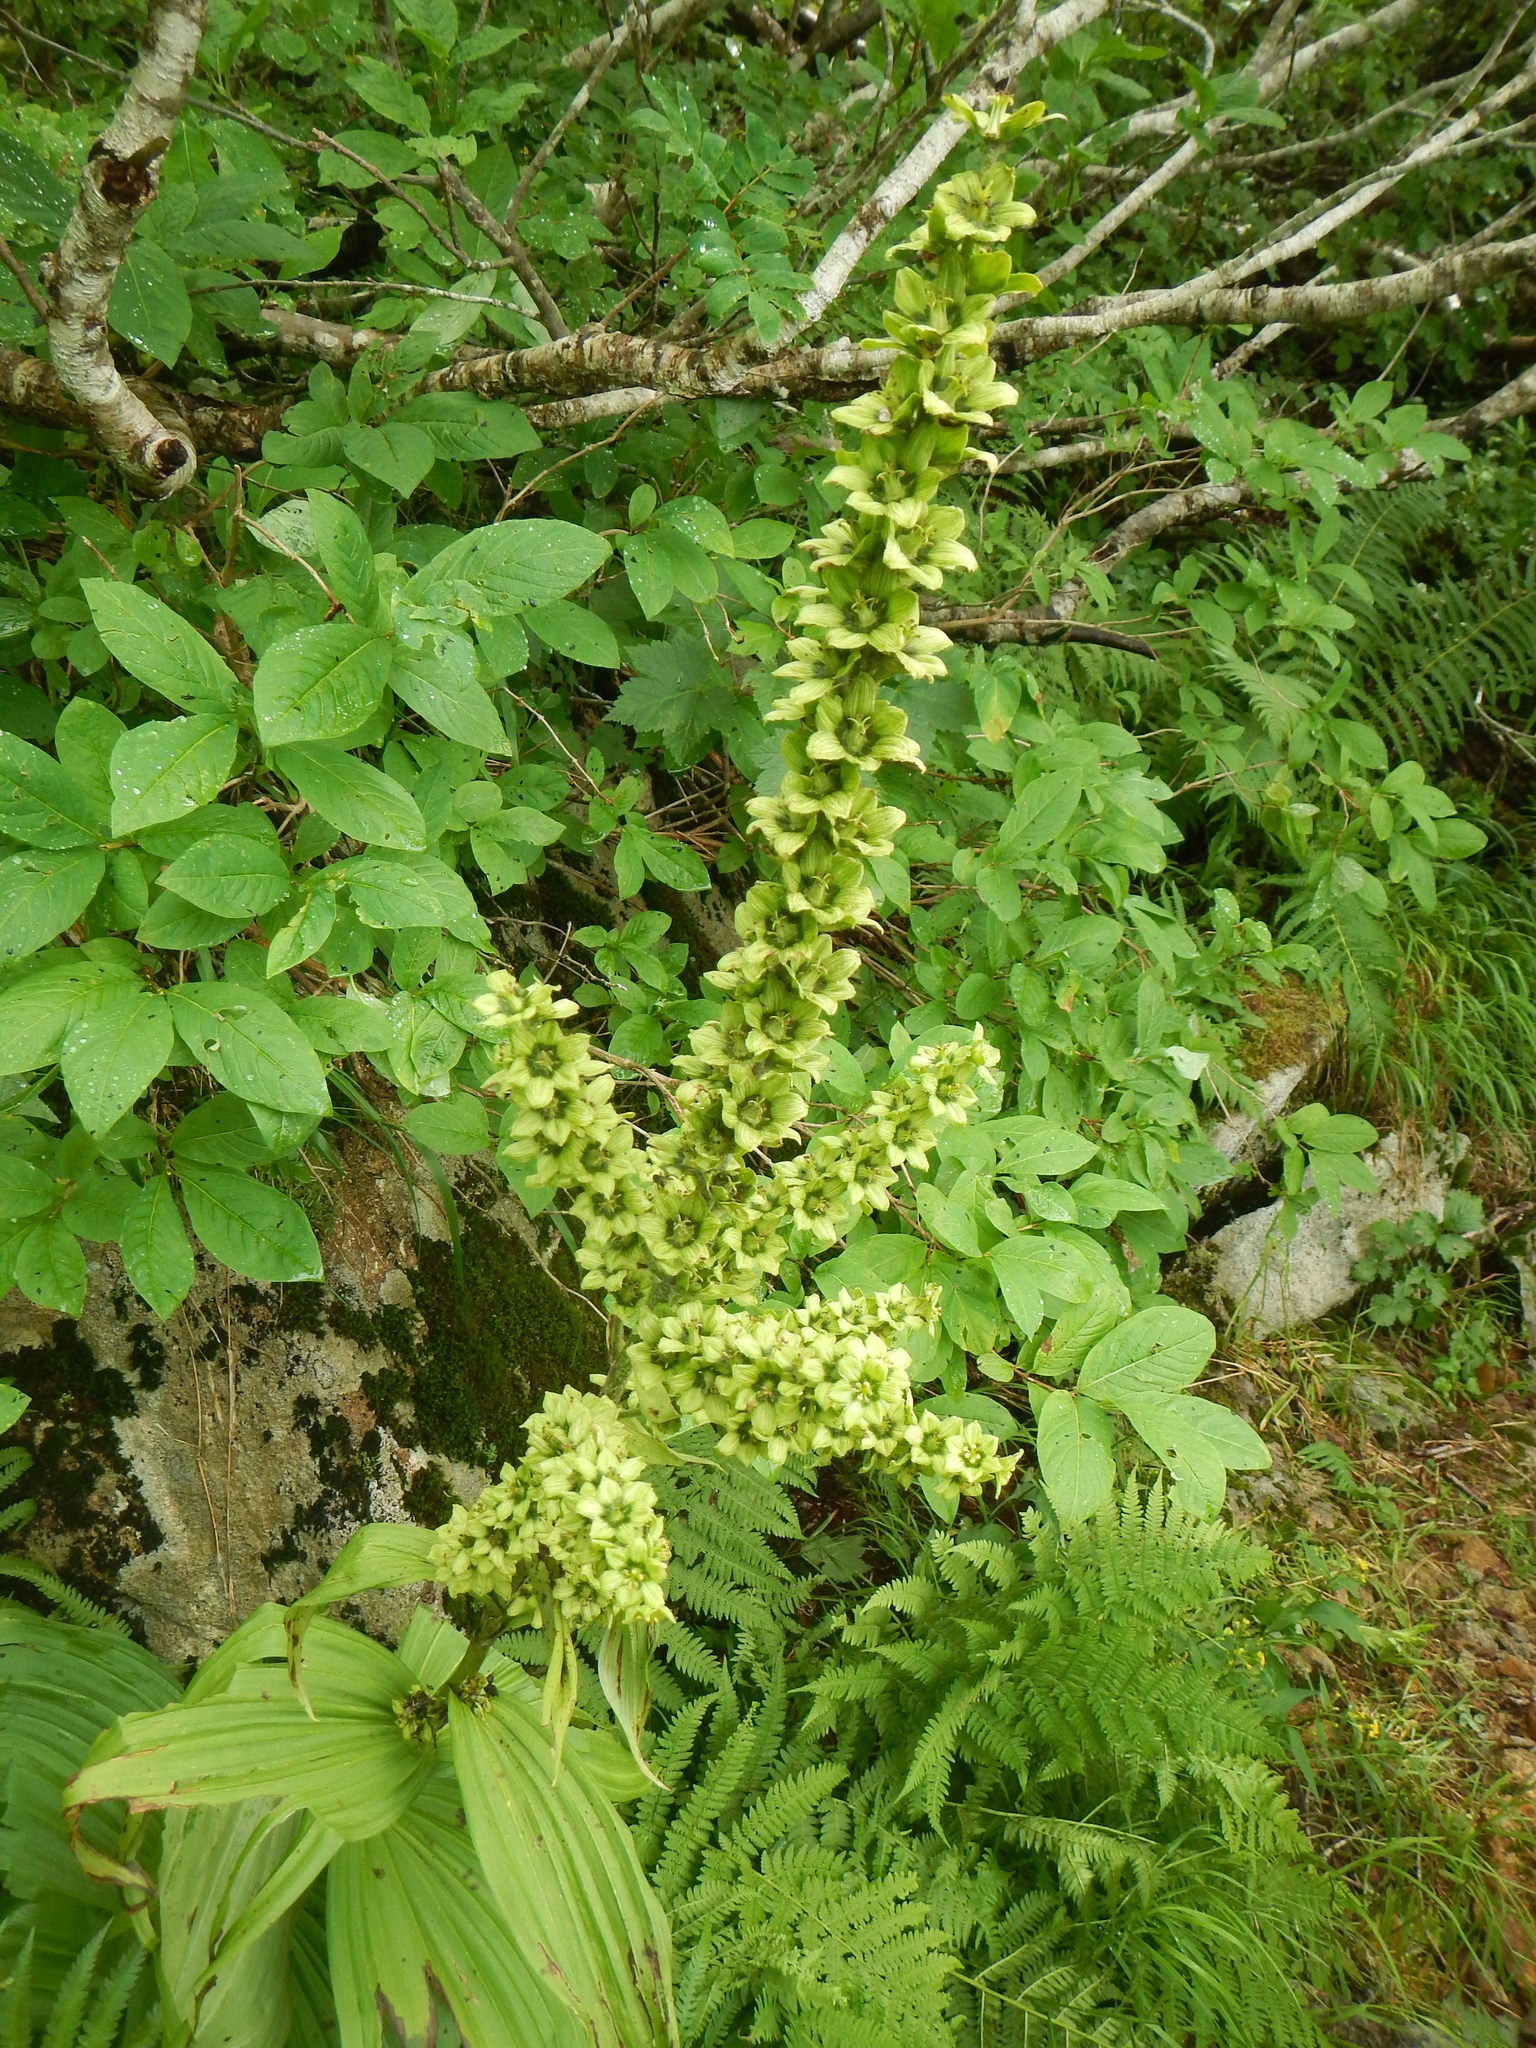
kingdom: Plantae
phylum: Tracheophyta
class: Liliopsida
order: Liliales
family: Melanthiaceae
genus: Veratrum
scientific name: Veratrum oxysepalum
